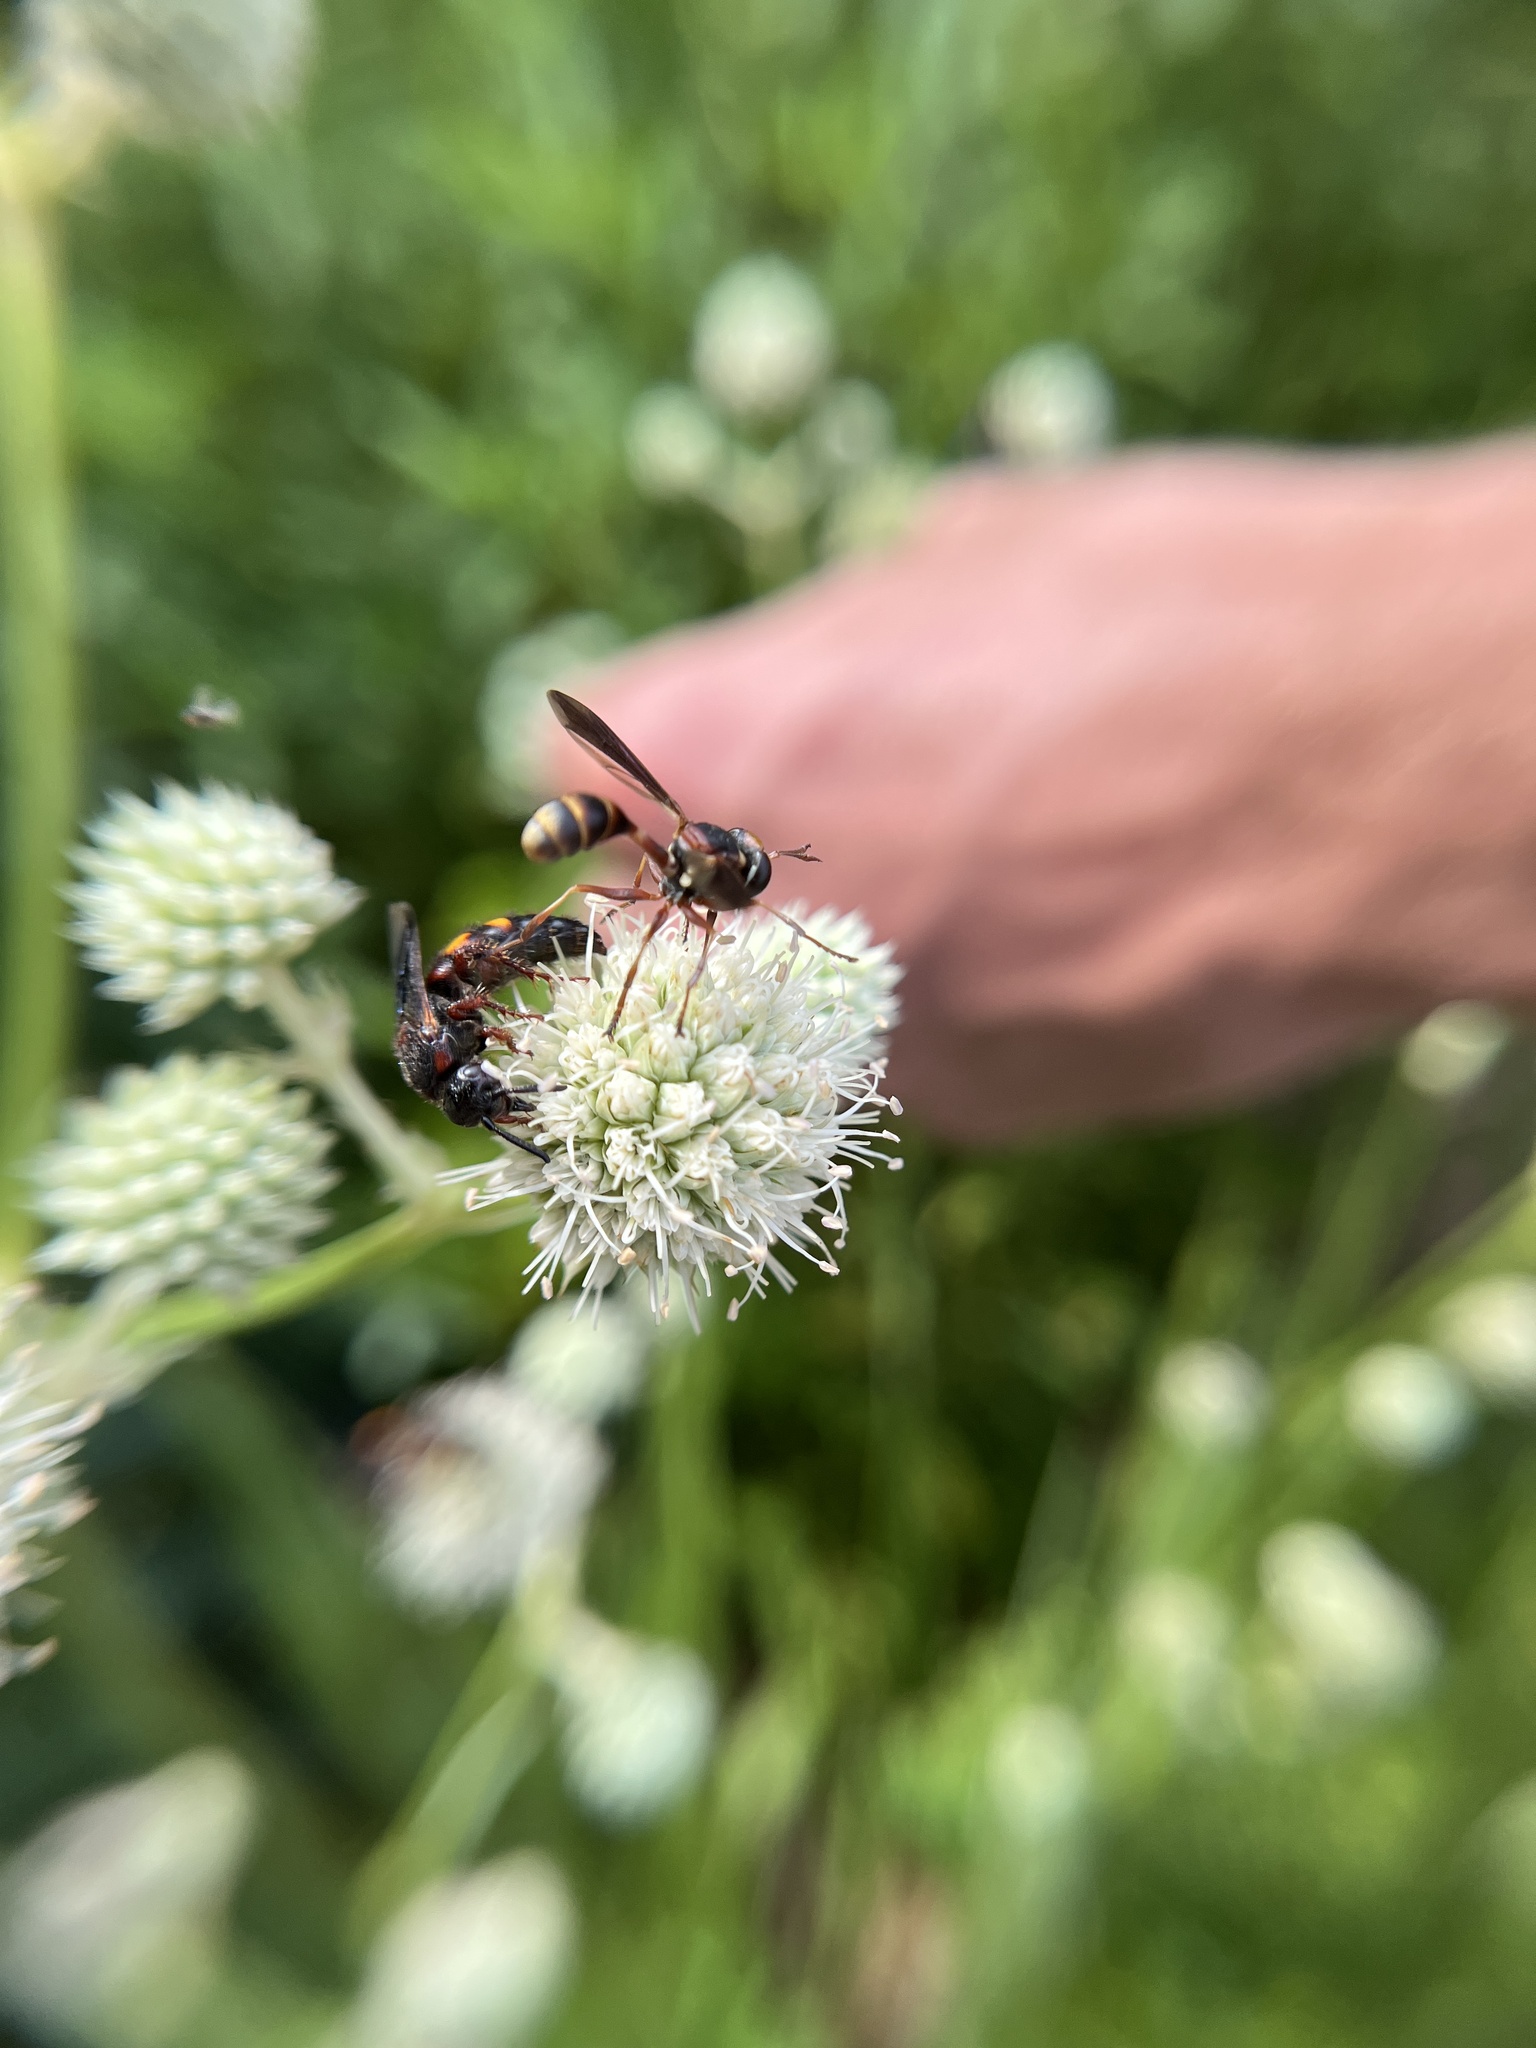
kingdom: Animalia
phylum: Arthropoda
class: Insecta
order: Diptera
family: Conopidae
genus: Physocephala
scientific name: Physocephala sagittaria
